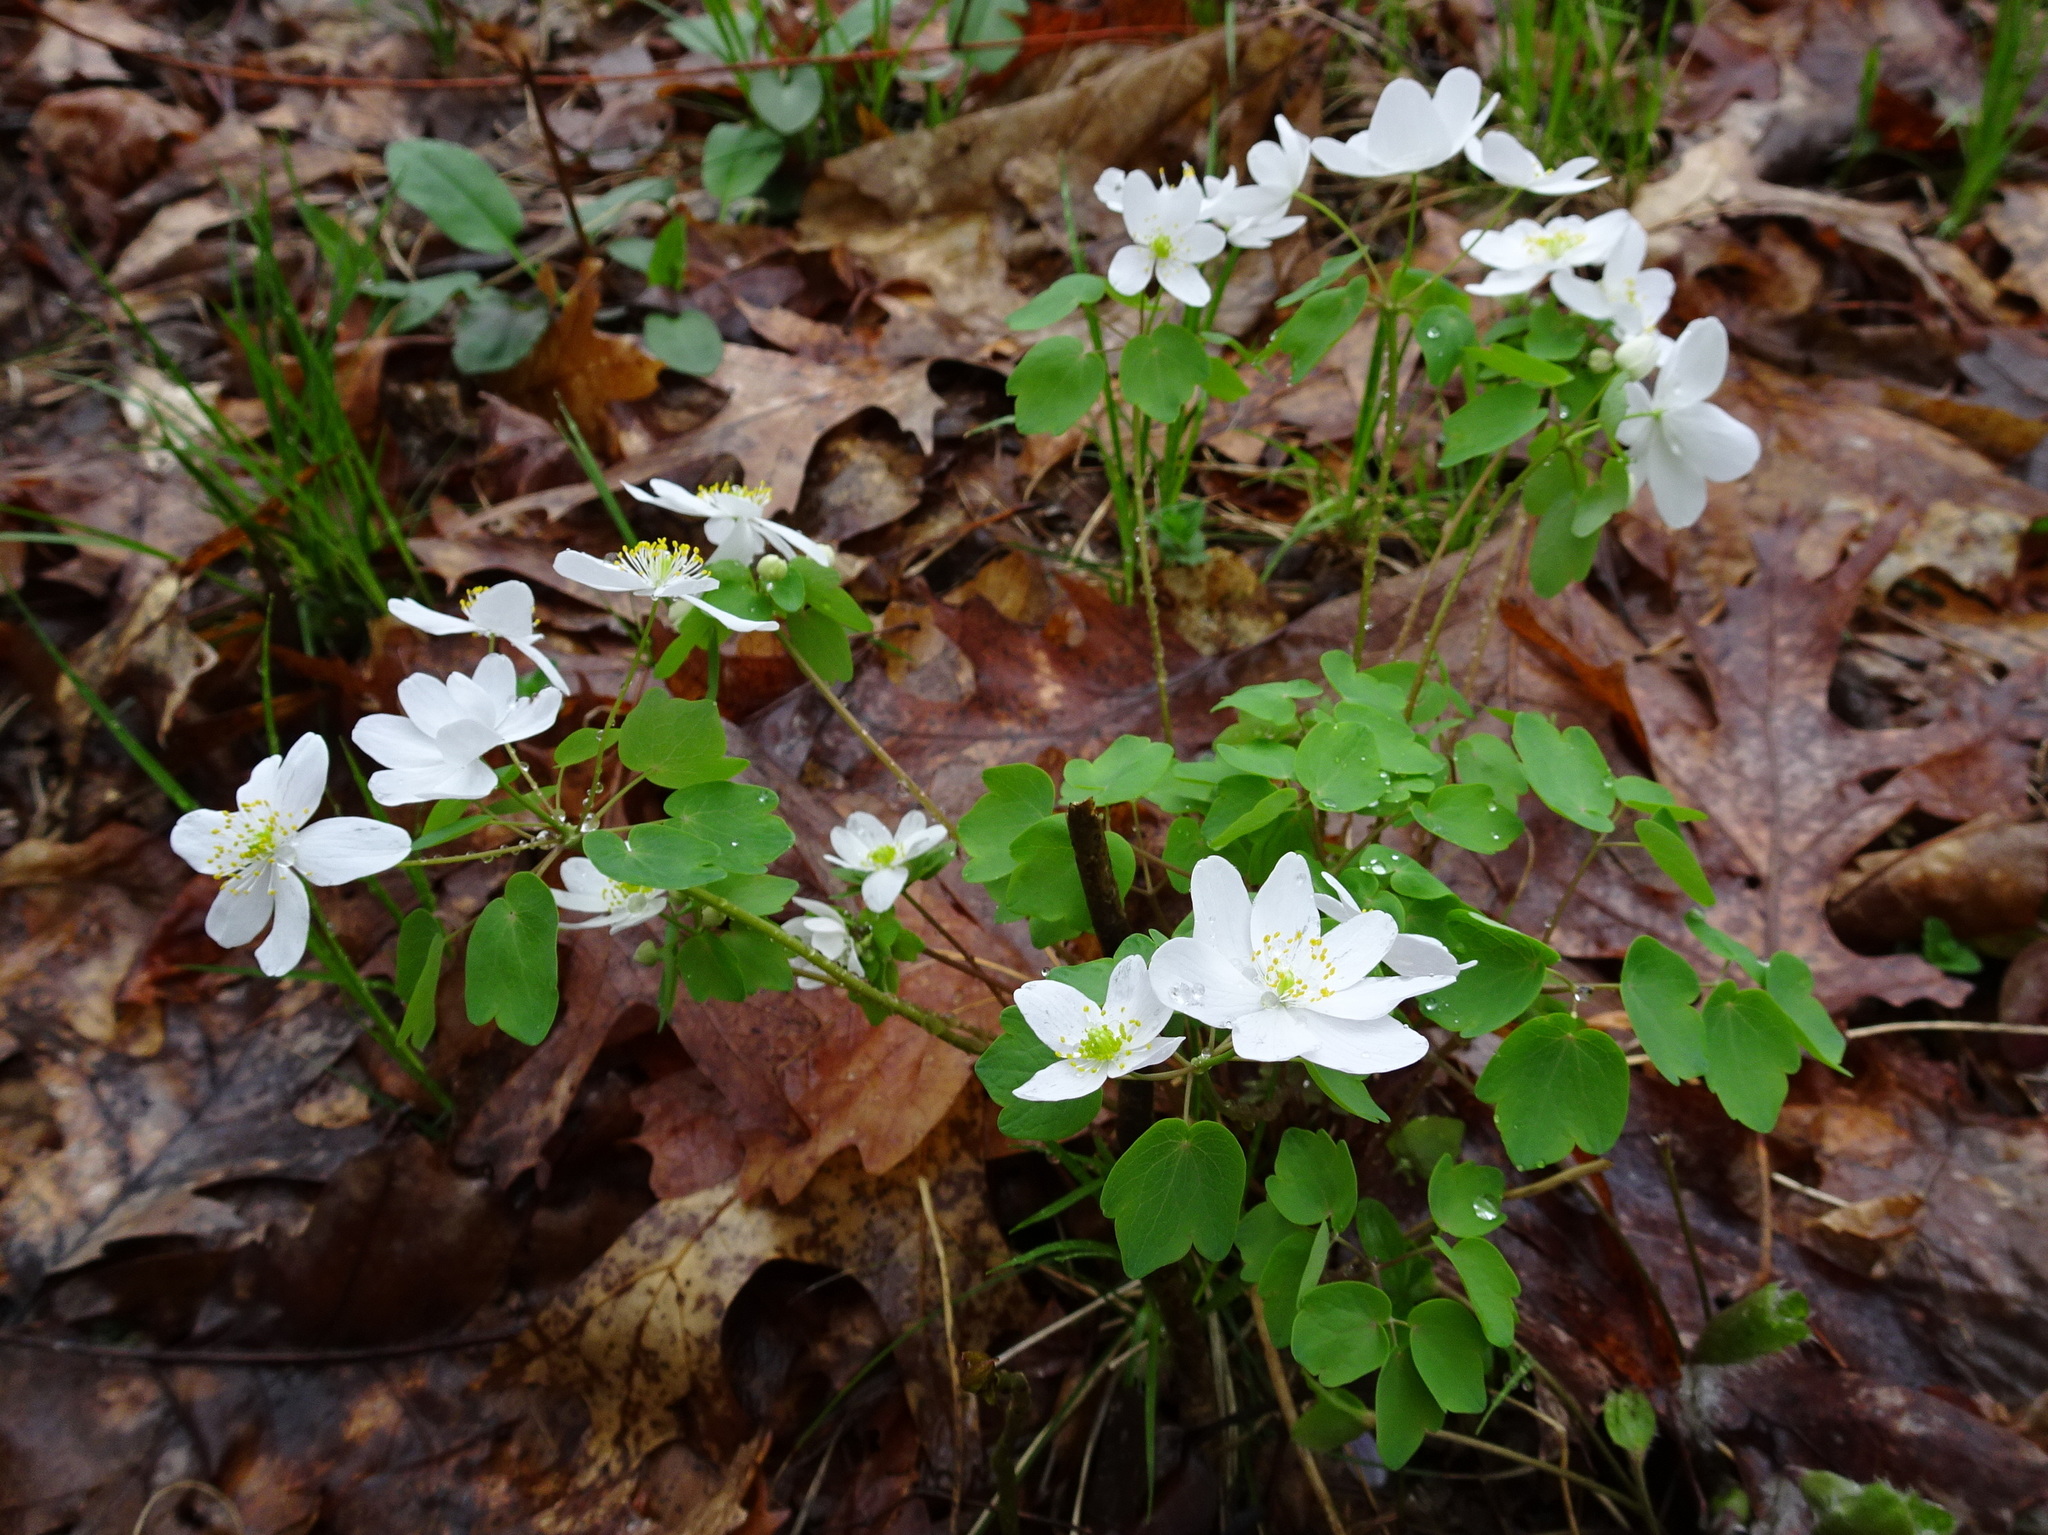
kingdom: Plantae
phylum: Tracheophyta
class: Magnoliopsida
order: Ranunculales
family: Ranunculaceae
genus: Thalictrum
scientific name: Thalictrum thalictroides
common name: Rue-anemone
